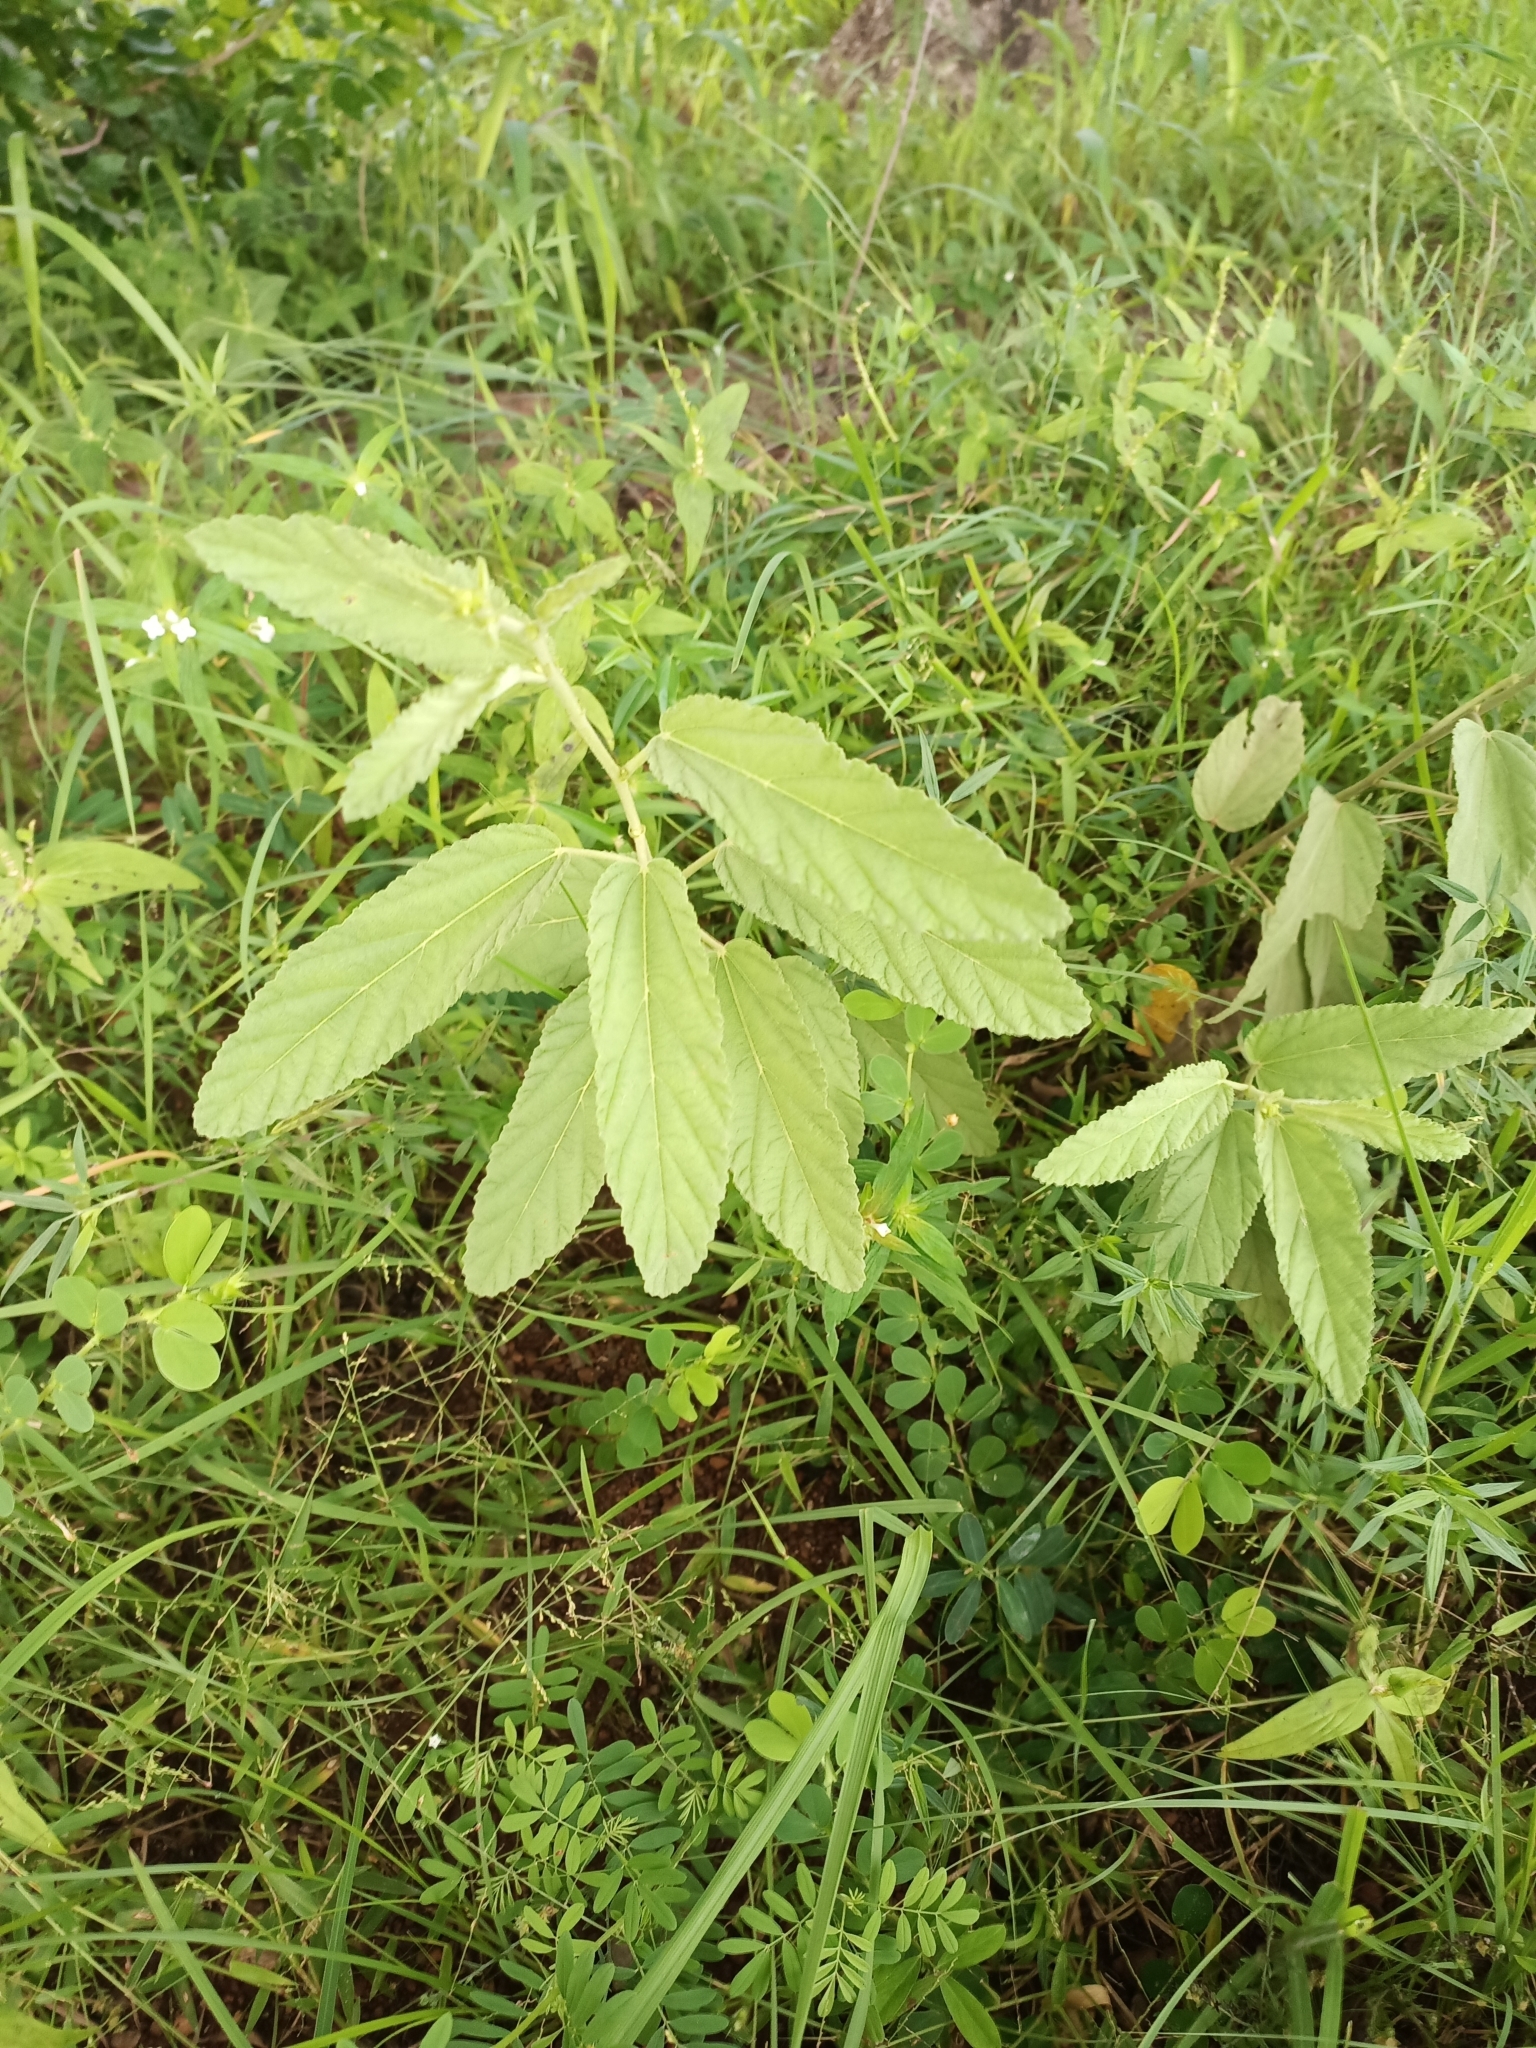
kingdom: Plantae
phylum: Tracheophyta
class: Magnoliopsida
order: Malvales
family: Malvaceae
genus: Waltheria
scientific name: Waltheria indica
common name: Leather-coat
